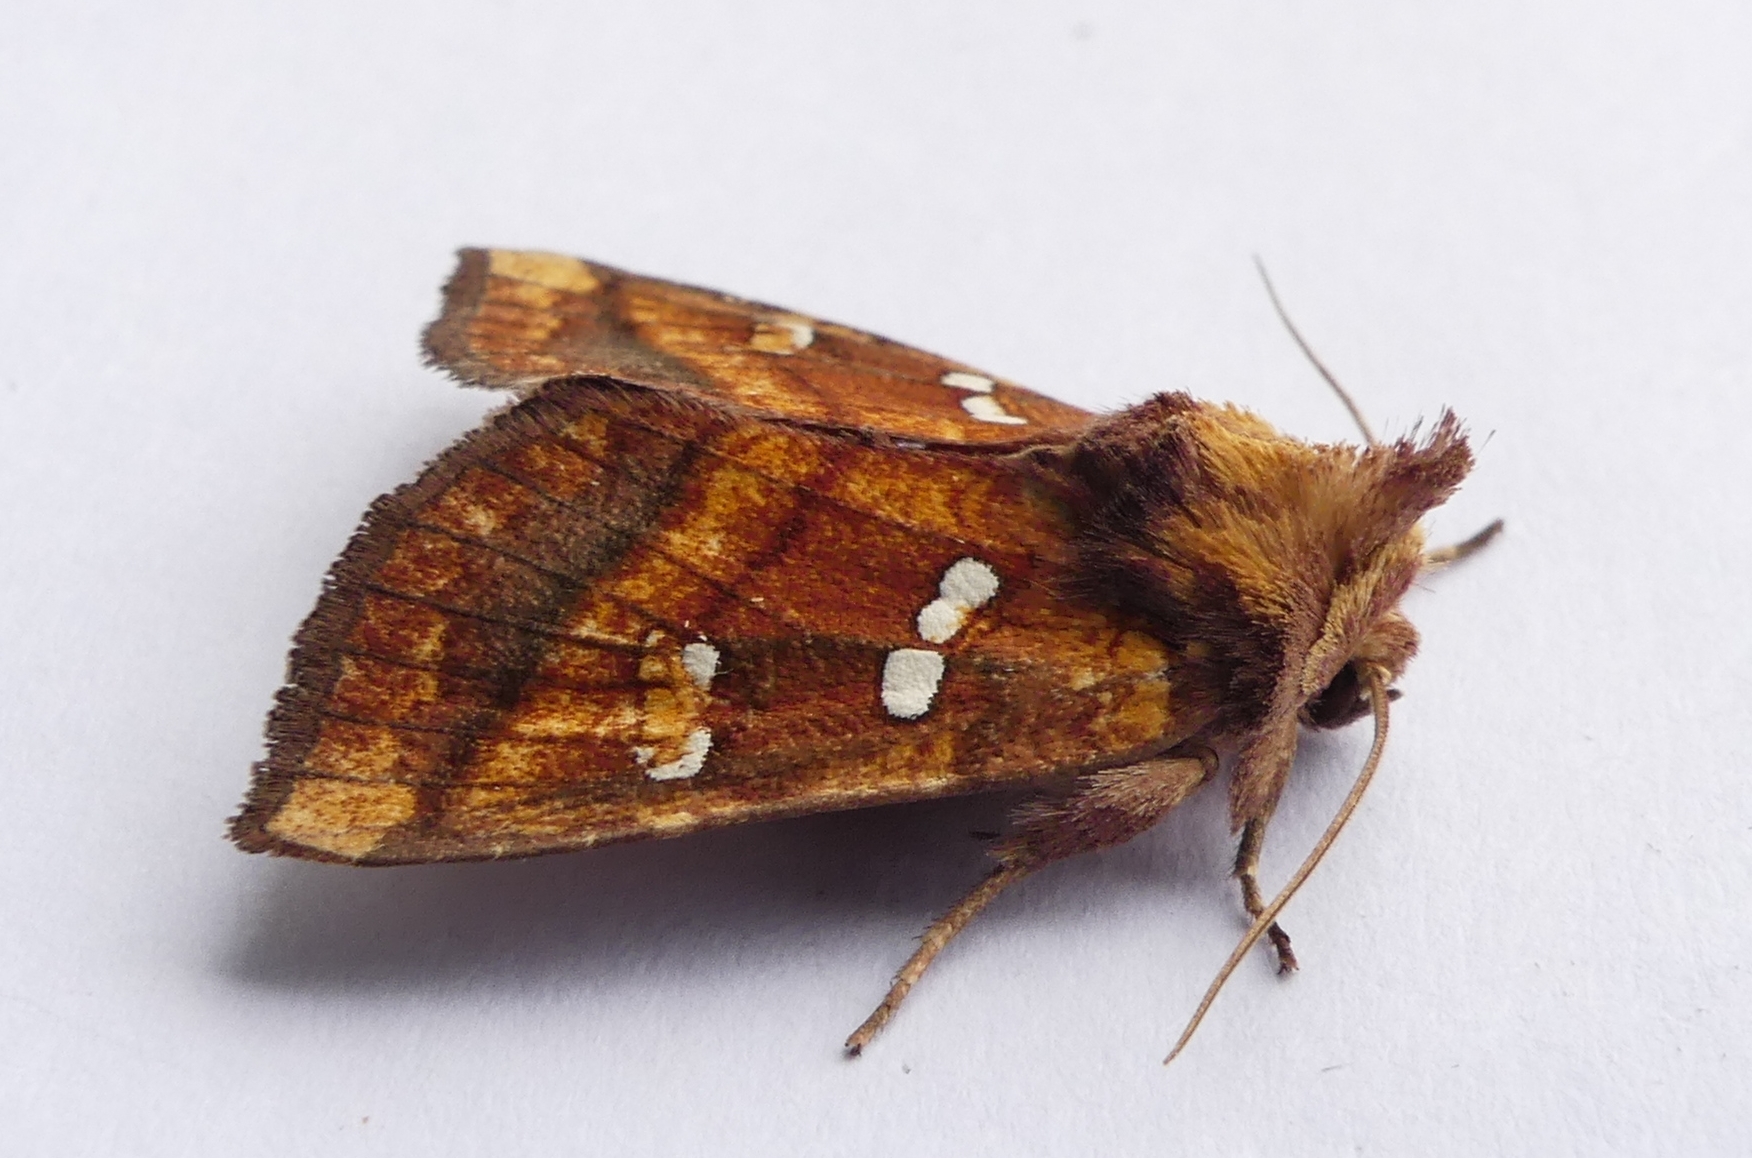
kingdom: Animalia
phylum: Arthropoda
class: Insecta
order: Lepidoptera
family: Noctuidae
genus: Papaipema
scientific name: Papaipema pterisii
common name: Bracken borer moth
